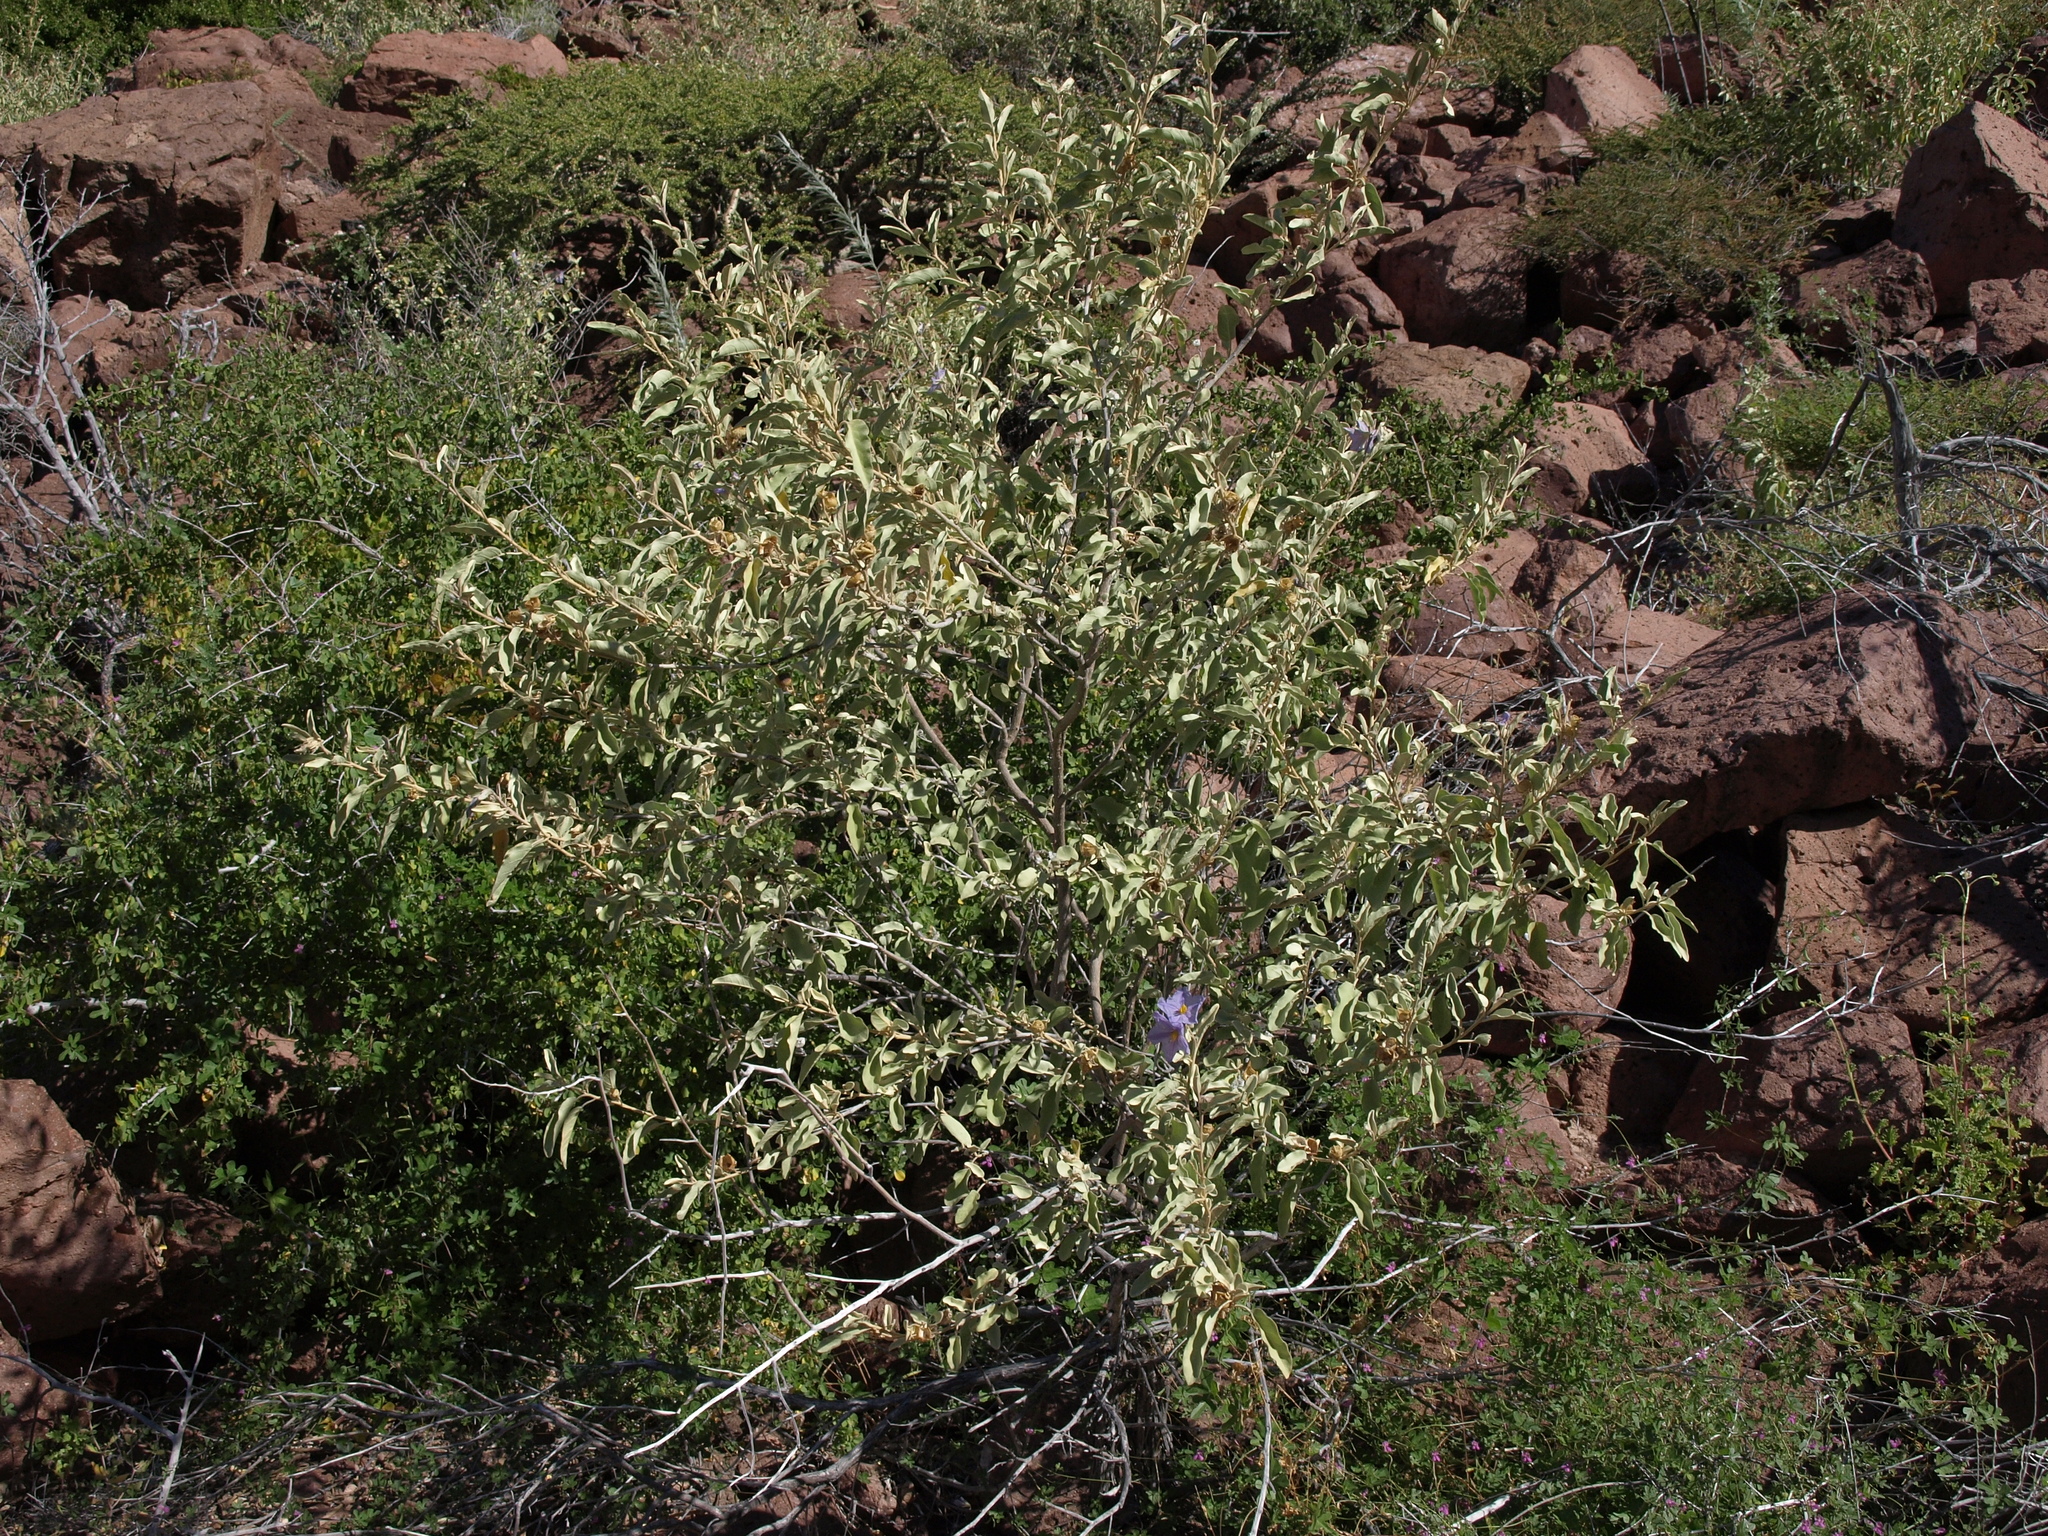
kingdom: Plantae
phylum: Tracheophyta
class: Magnoliopsida
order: Solanales
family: Solanaceae
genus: Solanum
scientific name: Solanum hindsianum
